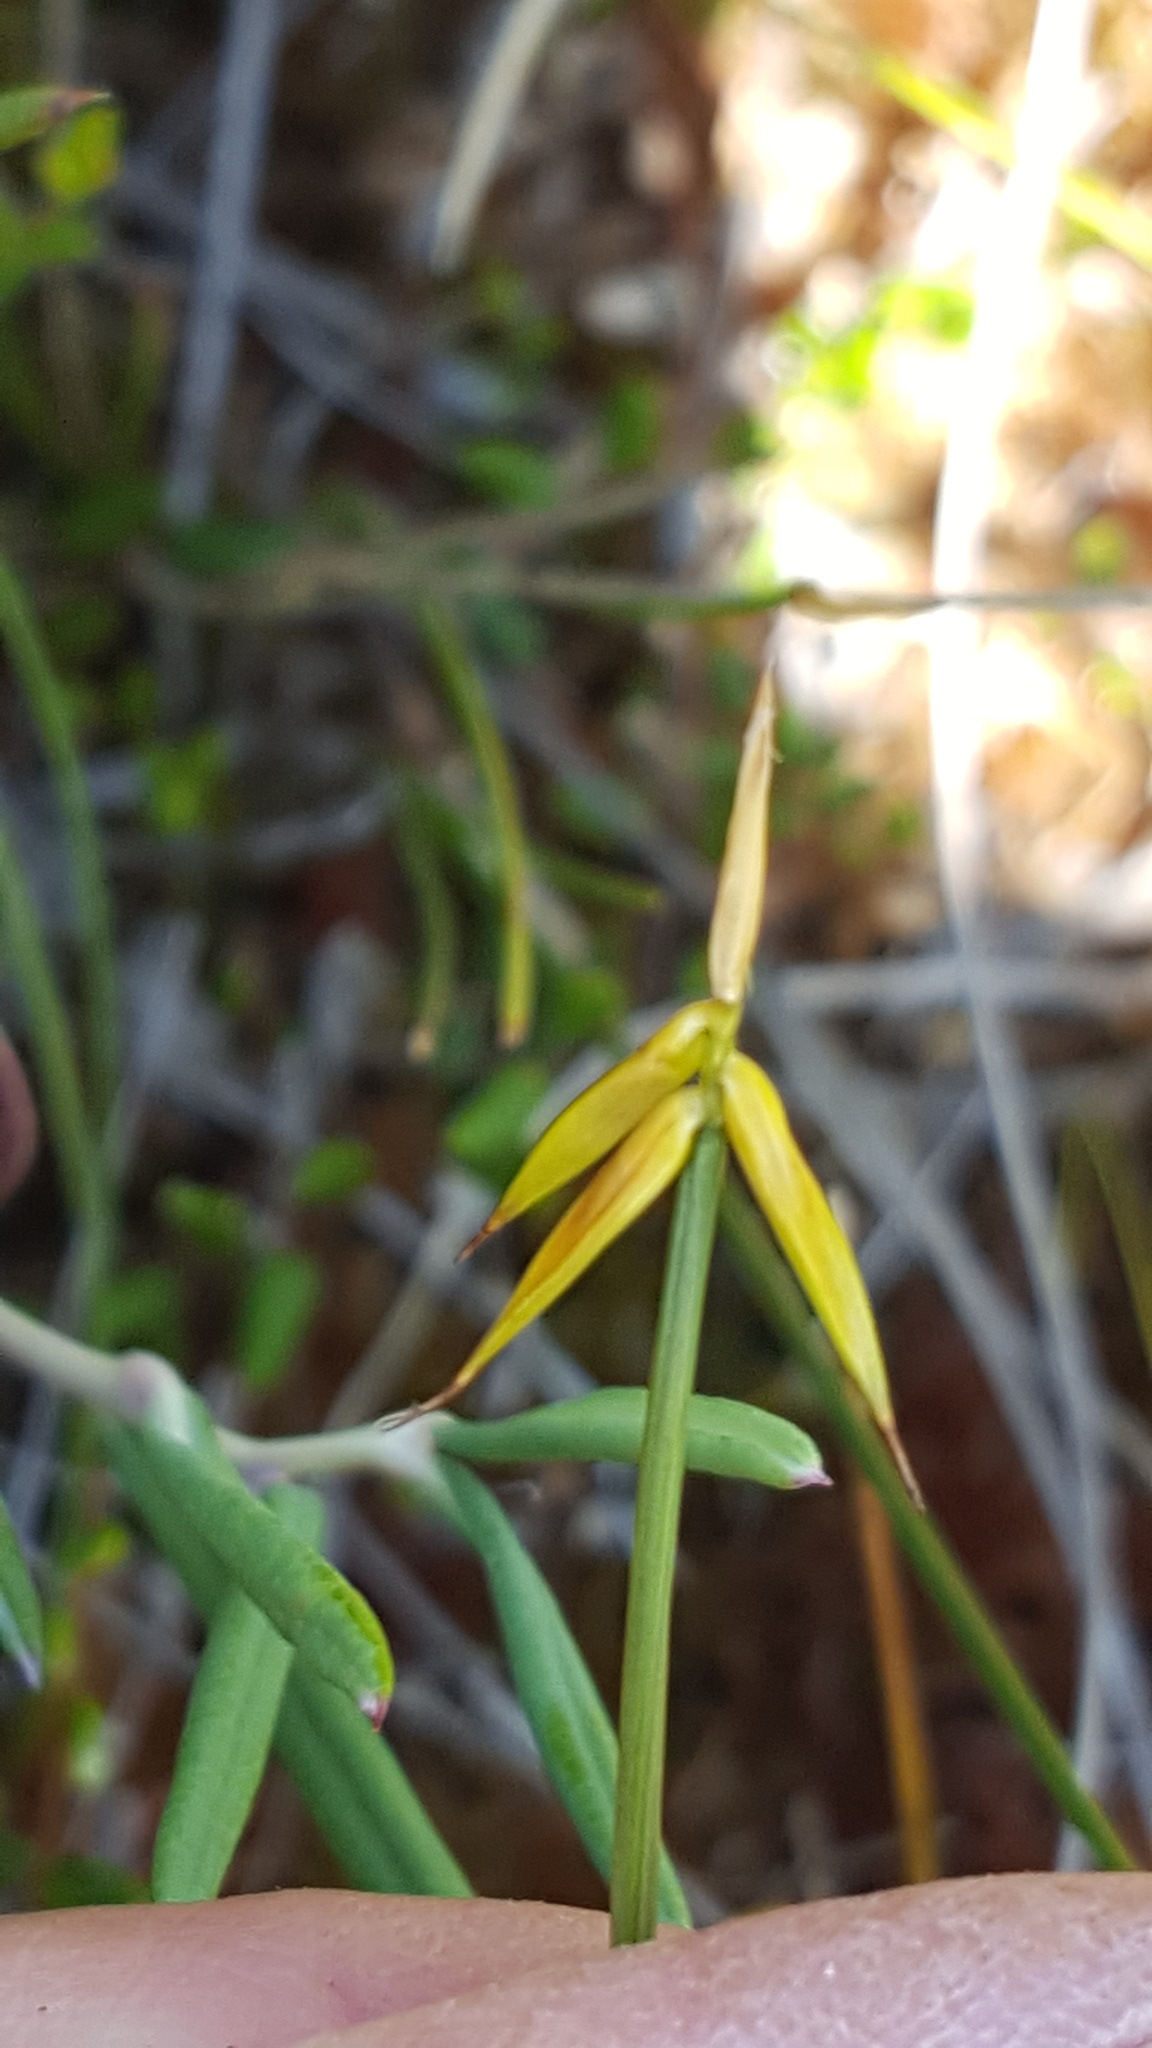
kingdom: Plantae
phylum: Tracheophyta
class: Liliopsida
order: Poales
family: Cyperaceae
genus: Carex
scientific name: Carex pauciflora
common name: Few-flowered sedge
